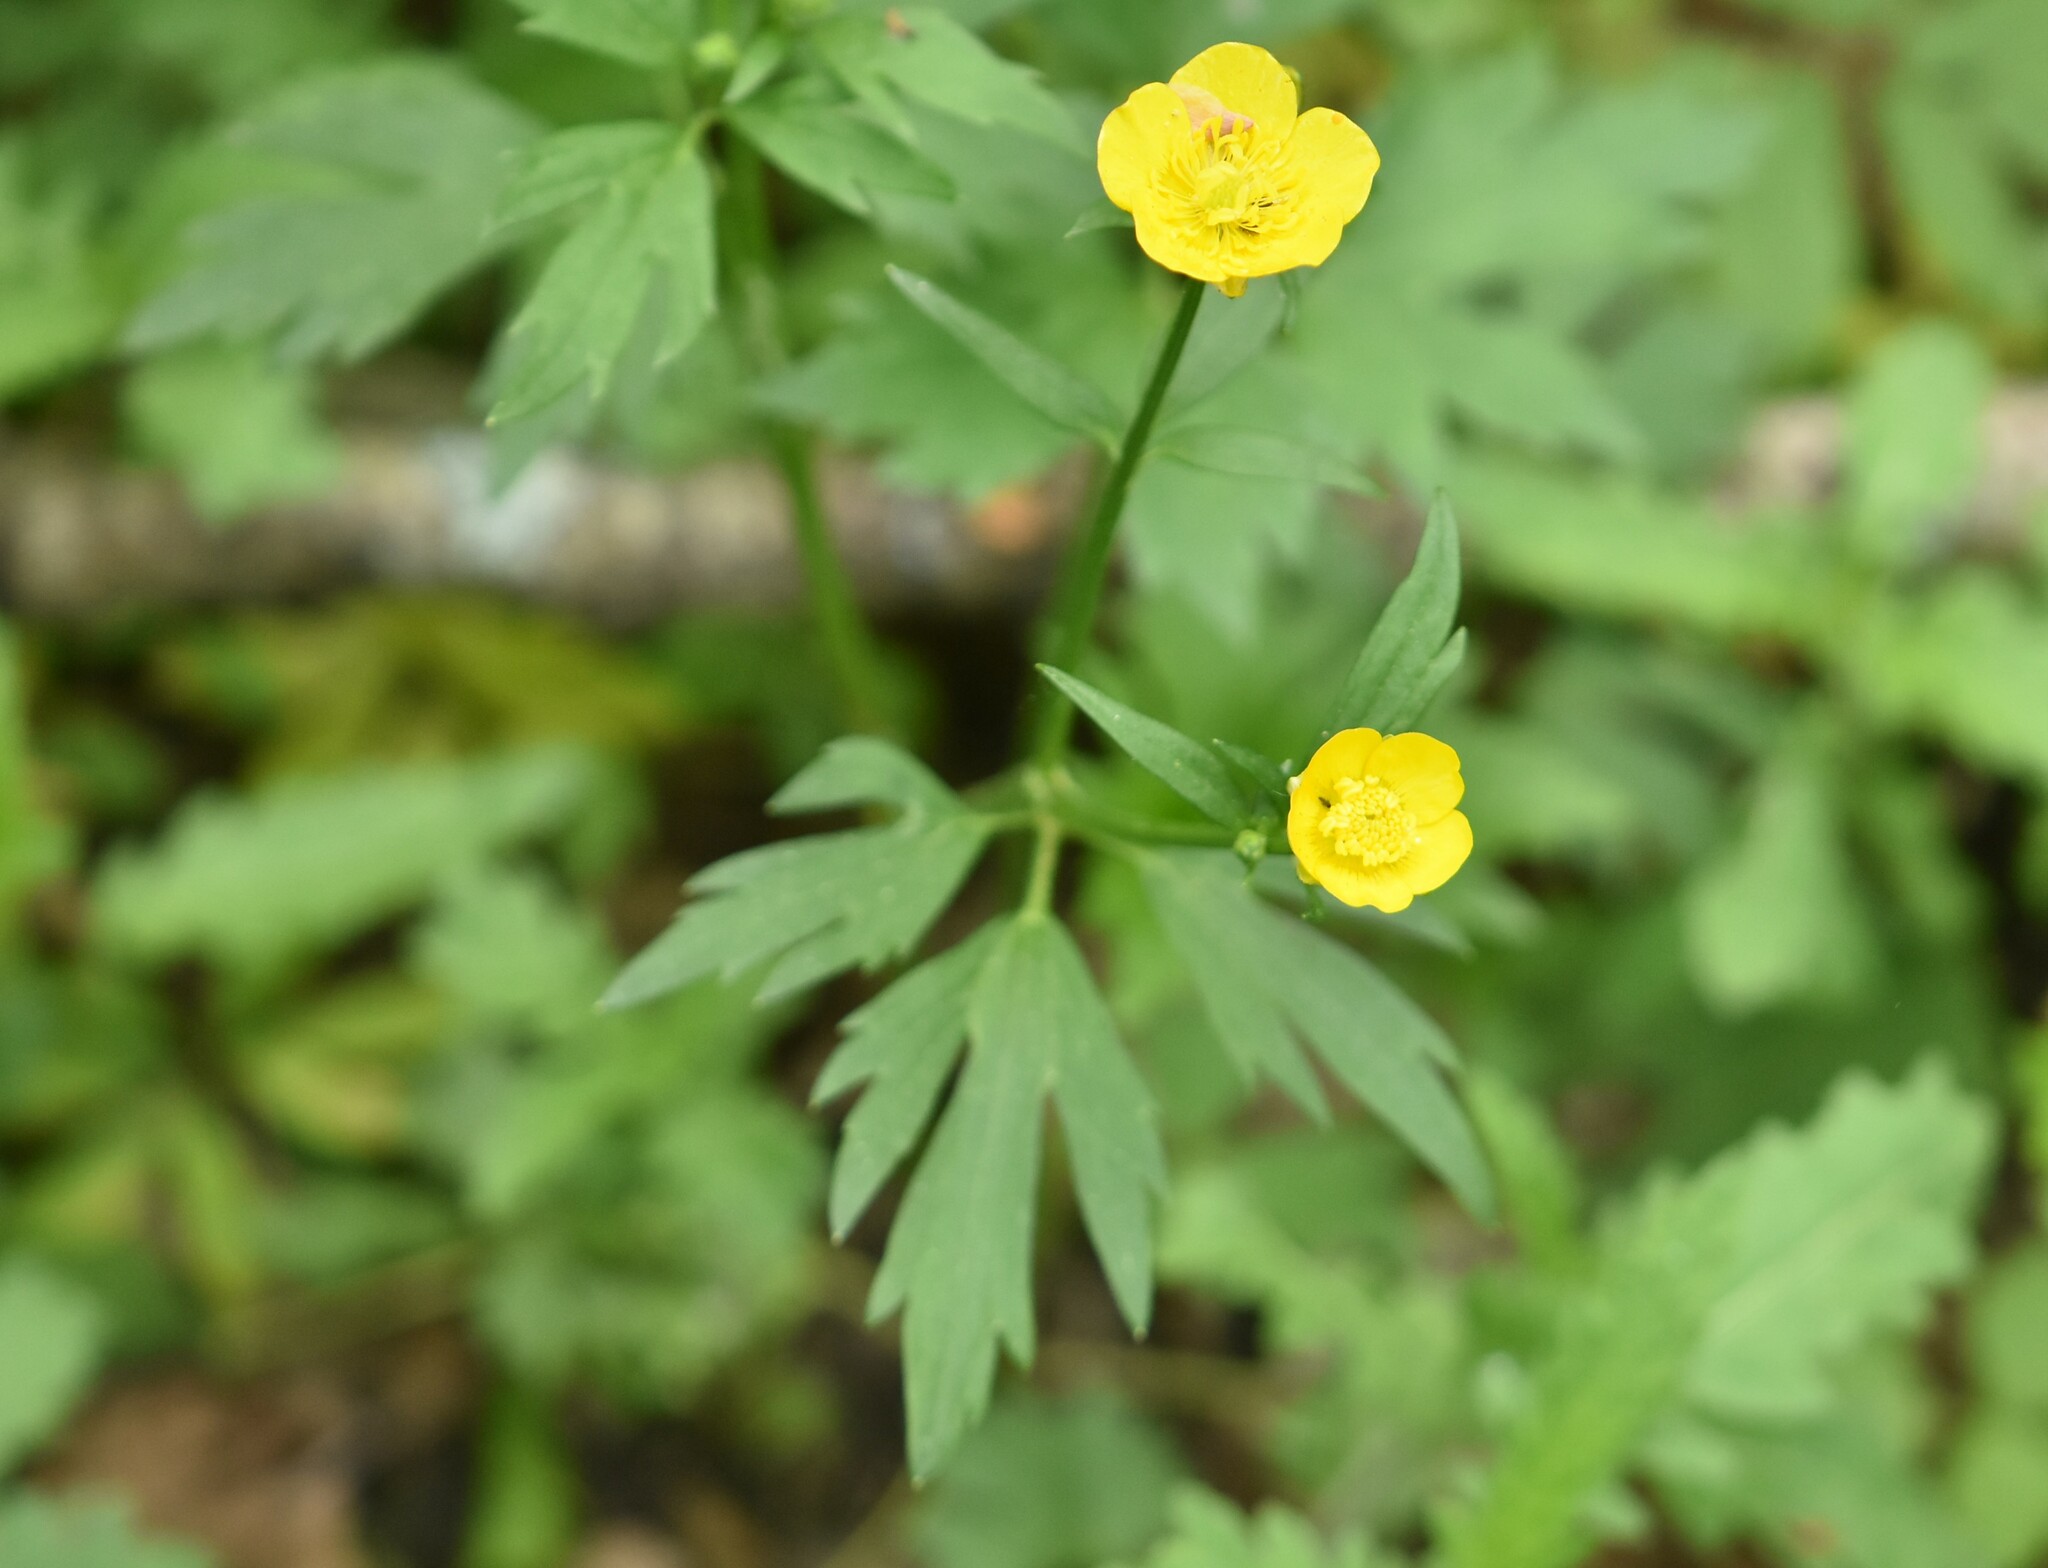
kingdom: Plantae
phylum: Tracheophyta
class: Magnoliopsida
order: Ranunculales
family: Ranunculaceae
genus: Ranunculus
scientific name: Ranunculus repens
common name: Creeping buttercup
